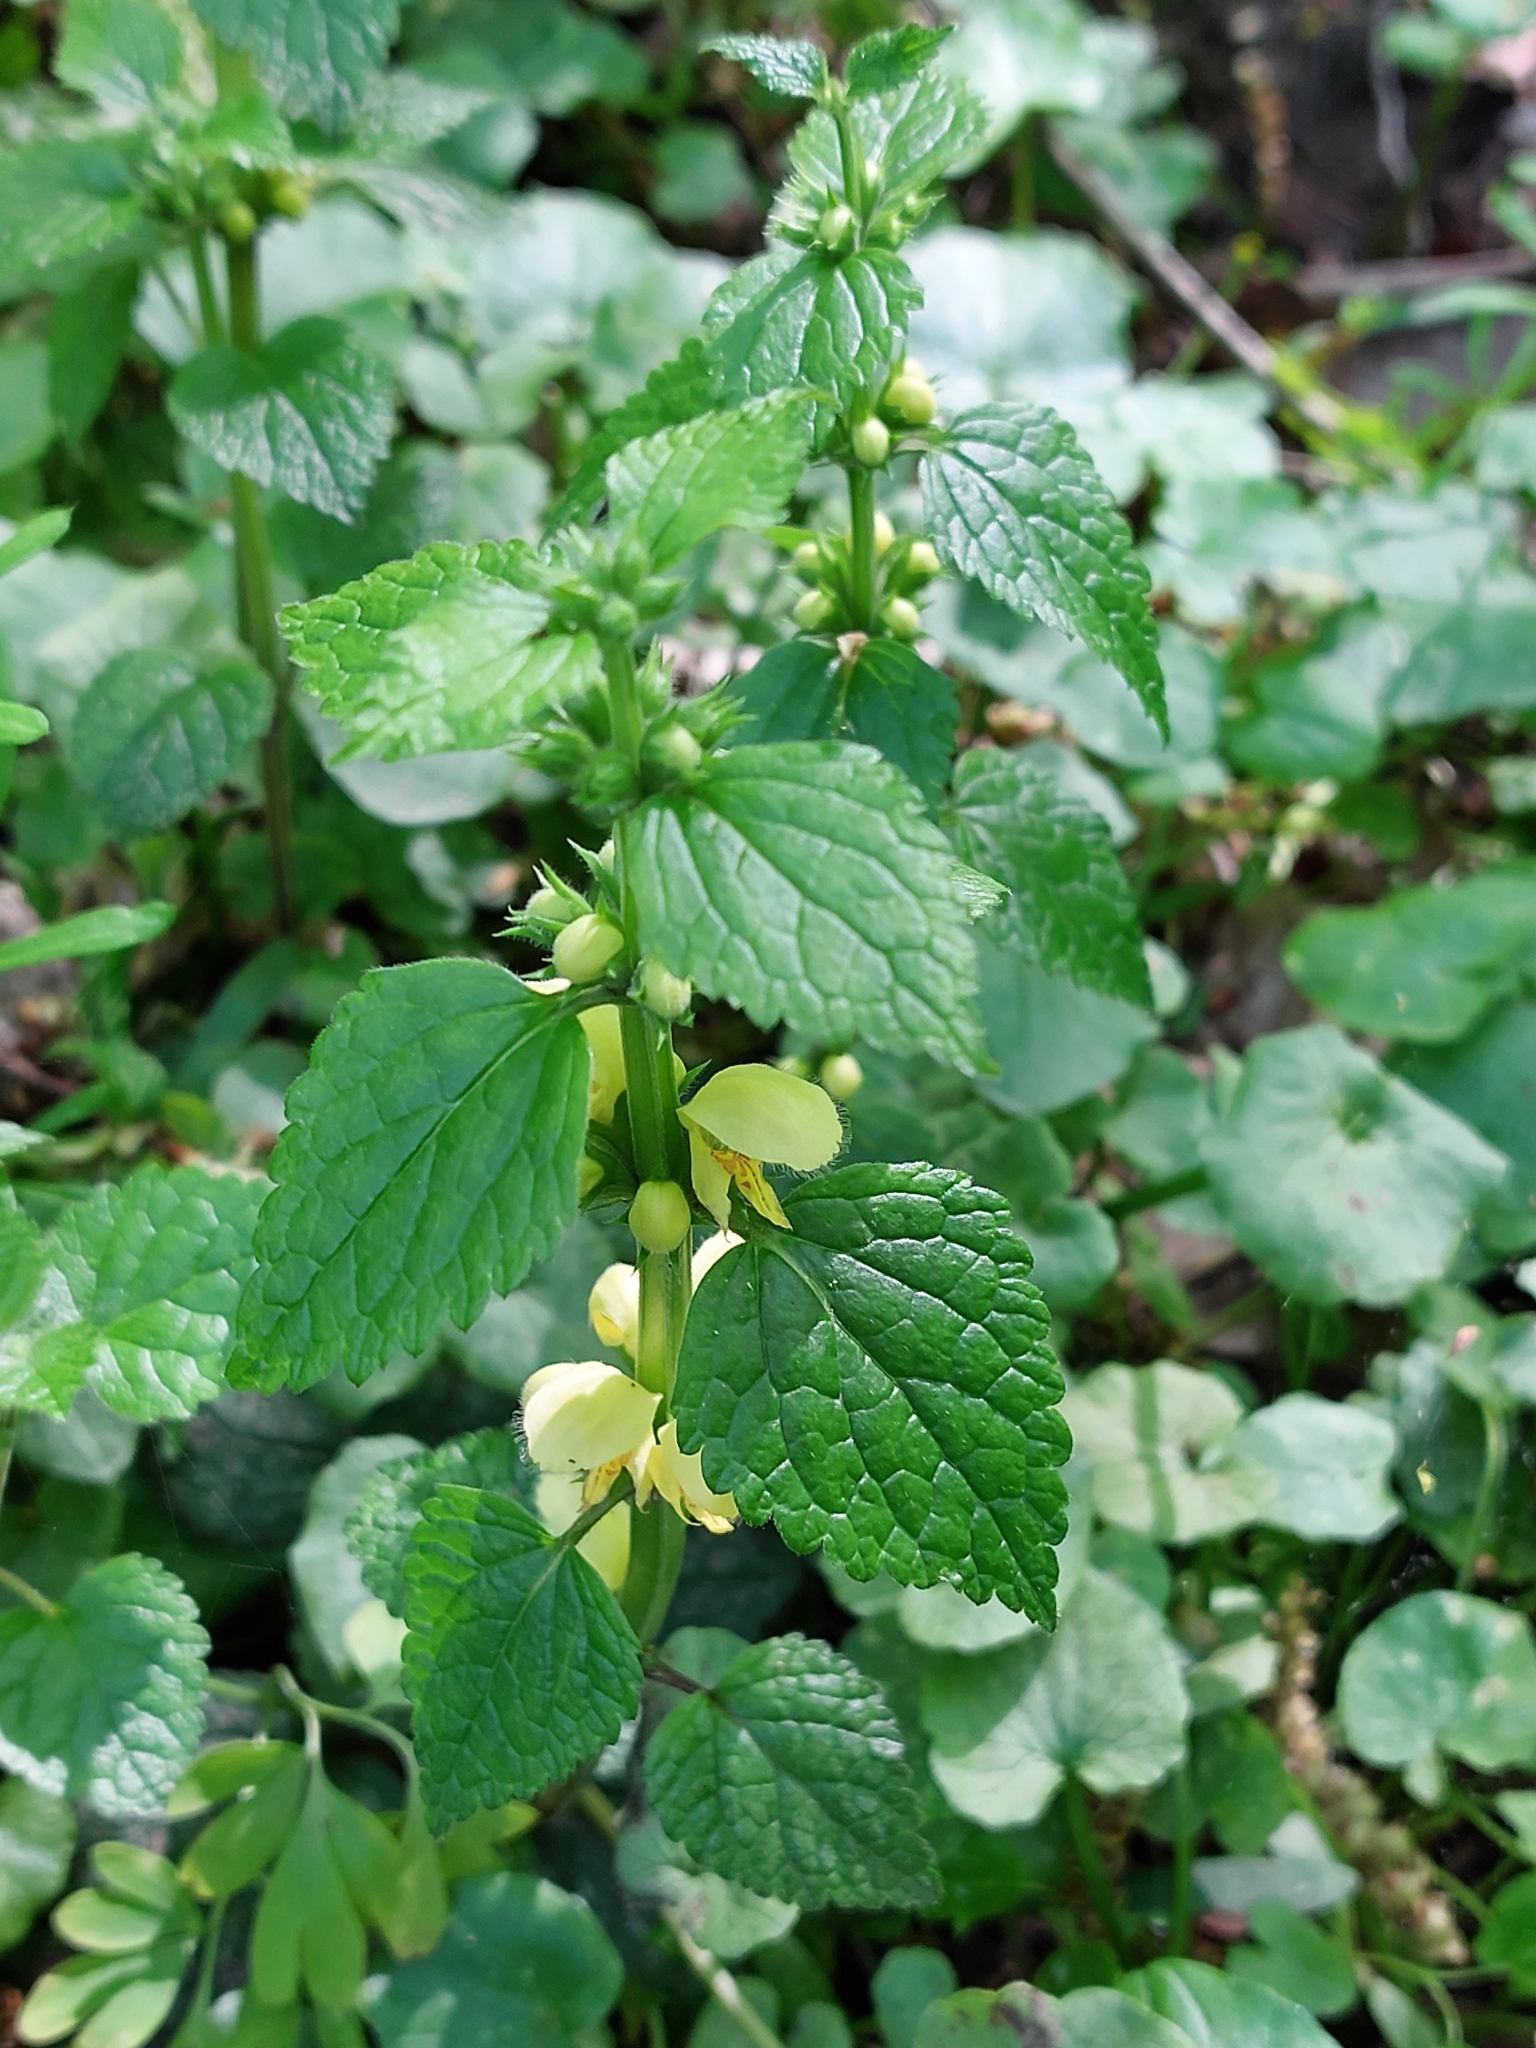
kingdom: Plantae
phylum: Tracheophyta
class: Magnoliopsida
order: Lamiales
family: Lamiaceae
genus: Lamium
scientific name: Lamium galeobdolon
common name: Yellow archangel
